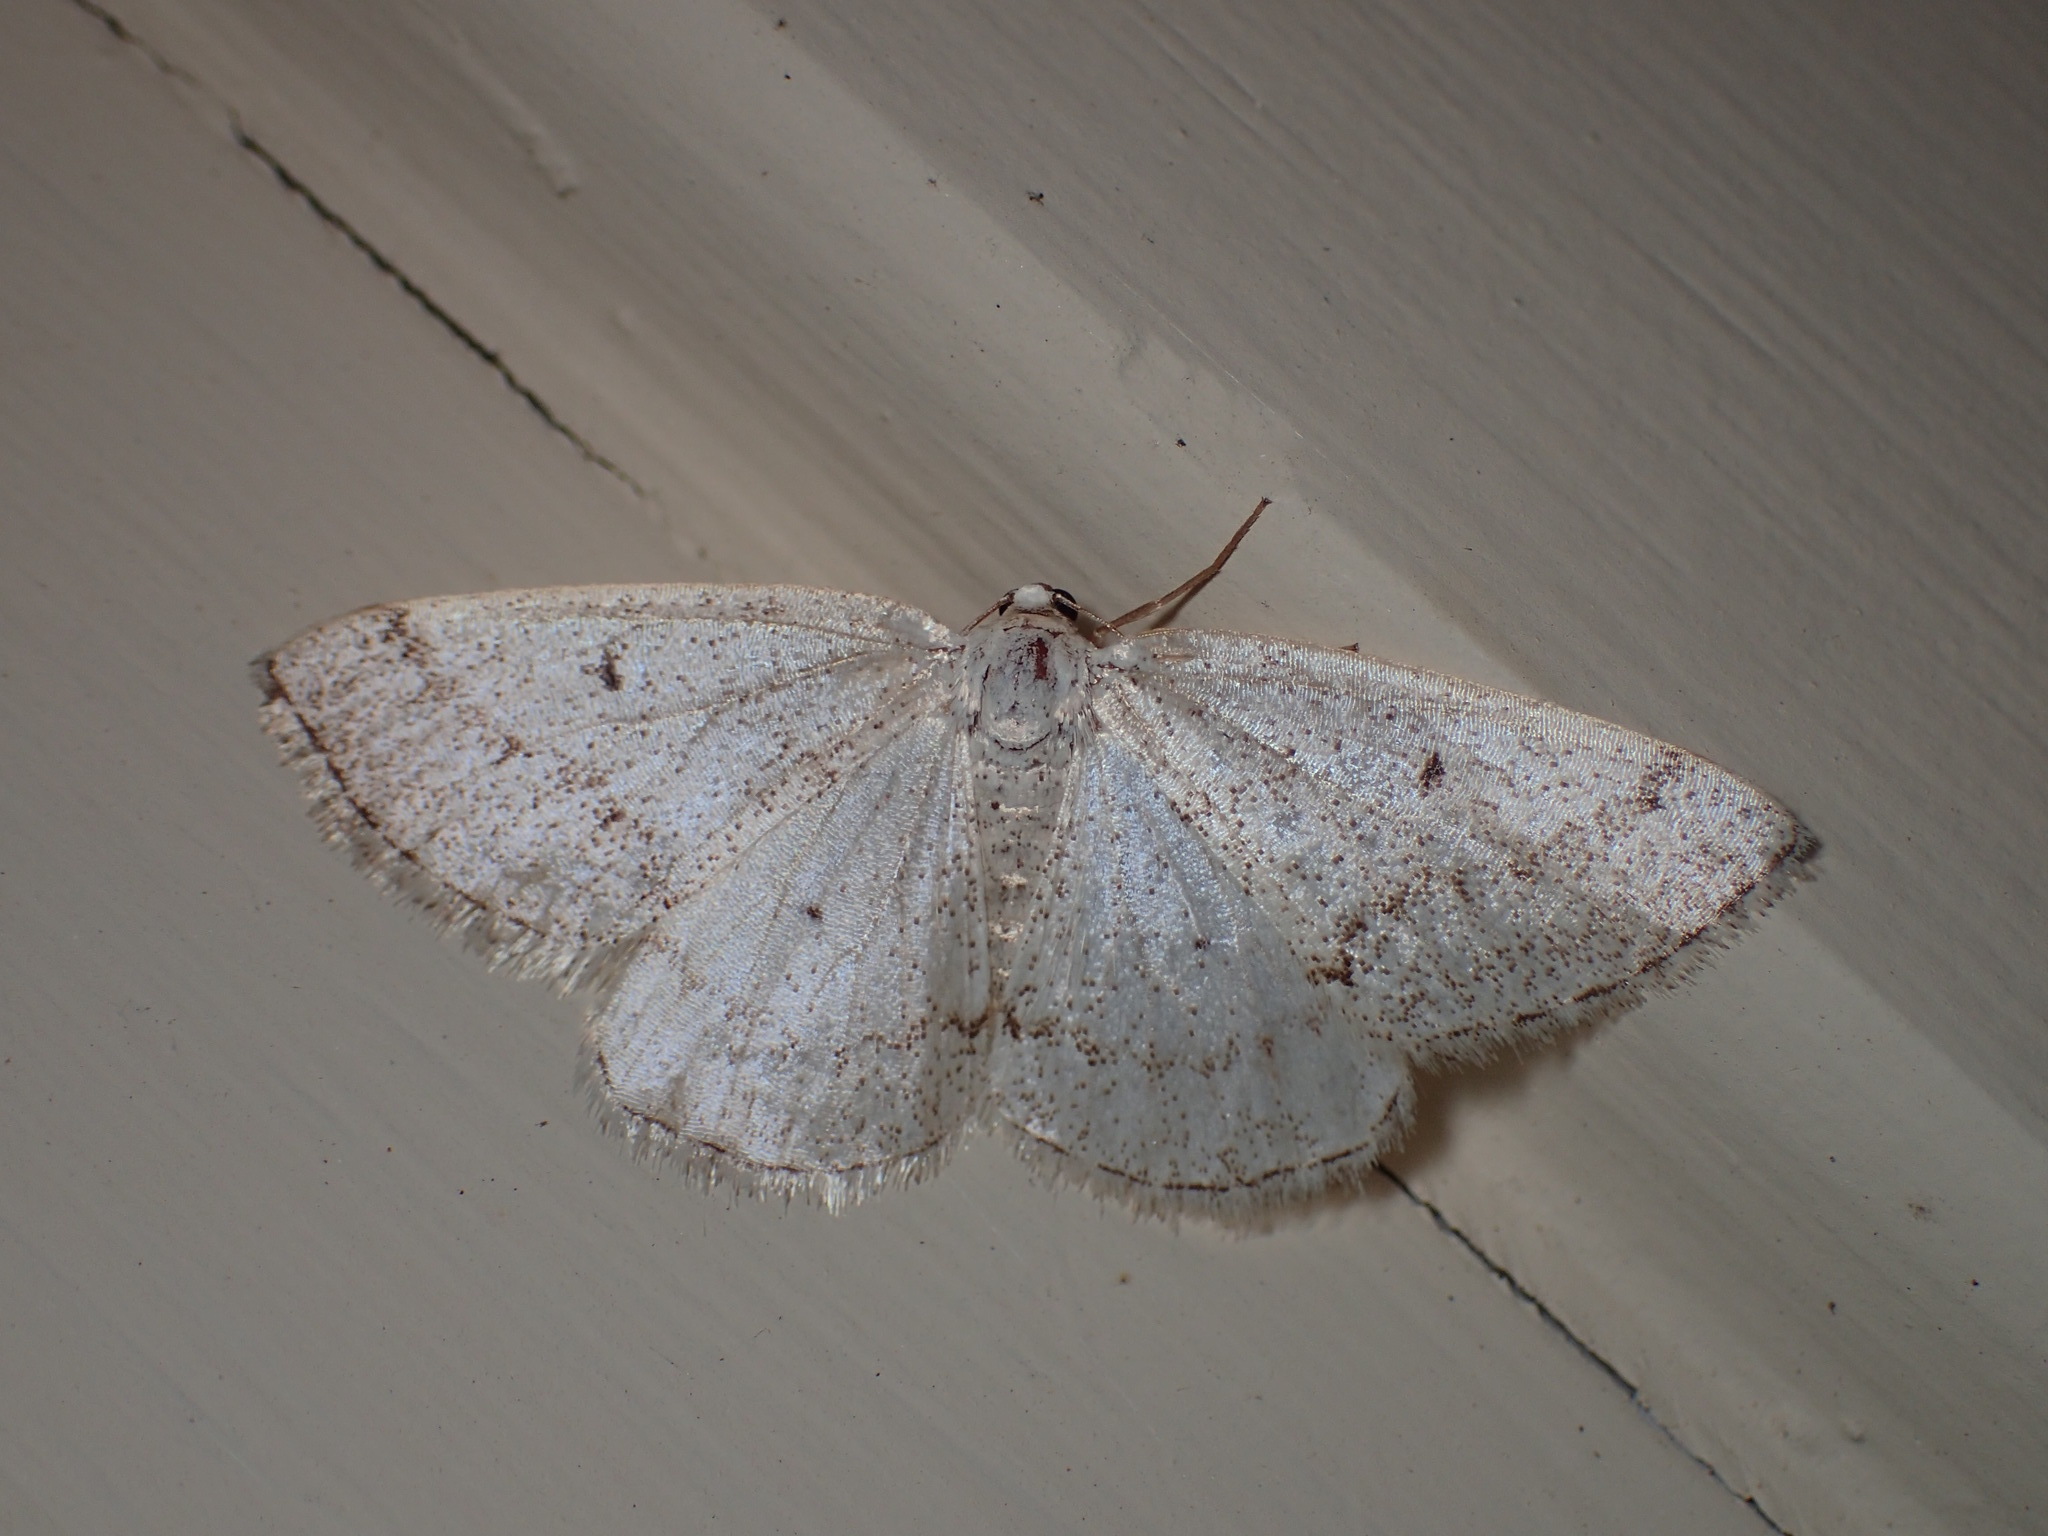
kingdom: Animalia
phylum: Arthropoda
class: Insecta
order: Lepidoptera
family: Geometridae
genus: Lomographa
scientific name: Lomographa glomeraria
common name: Gray spring moth
